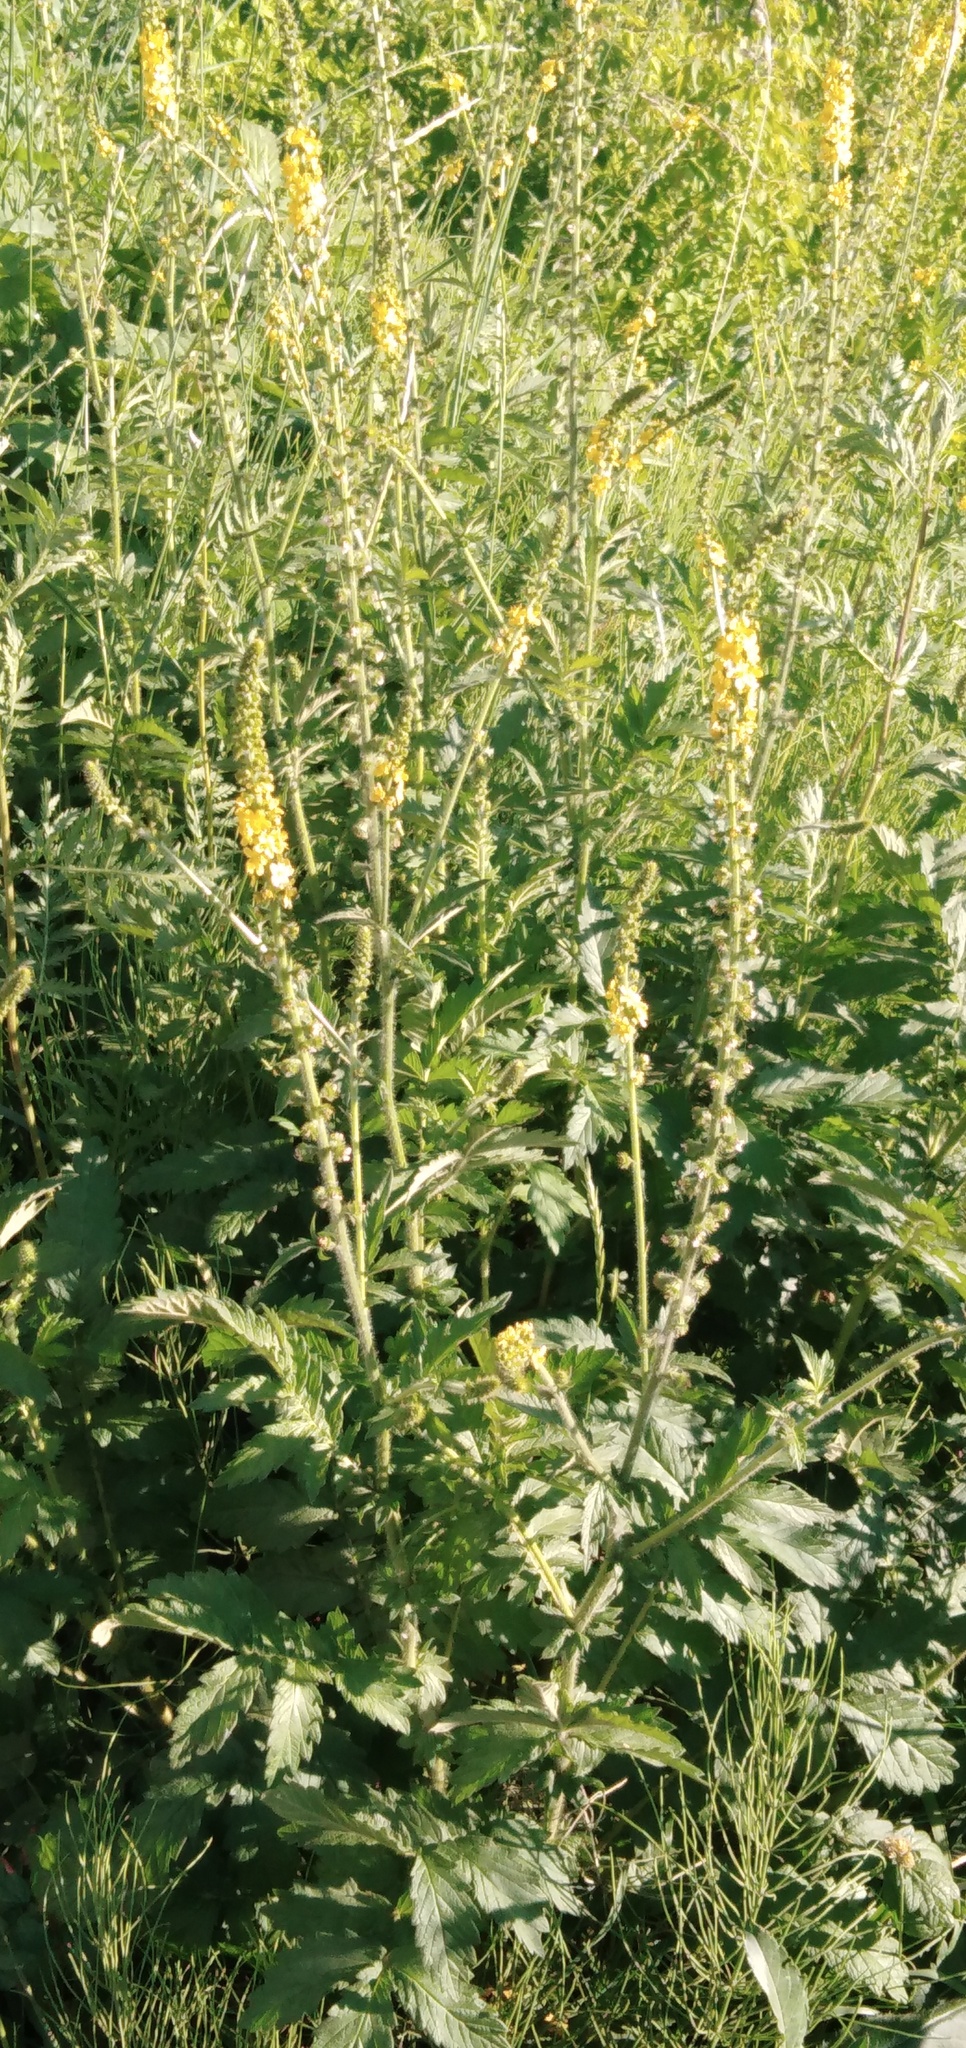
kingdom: Plantae
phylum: Tracheophyta
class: Magnoliopsida
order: Rosales
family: Rosaceae
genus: Agrimonia
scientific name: Agrimonia eupatoria
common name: Agrimony
